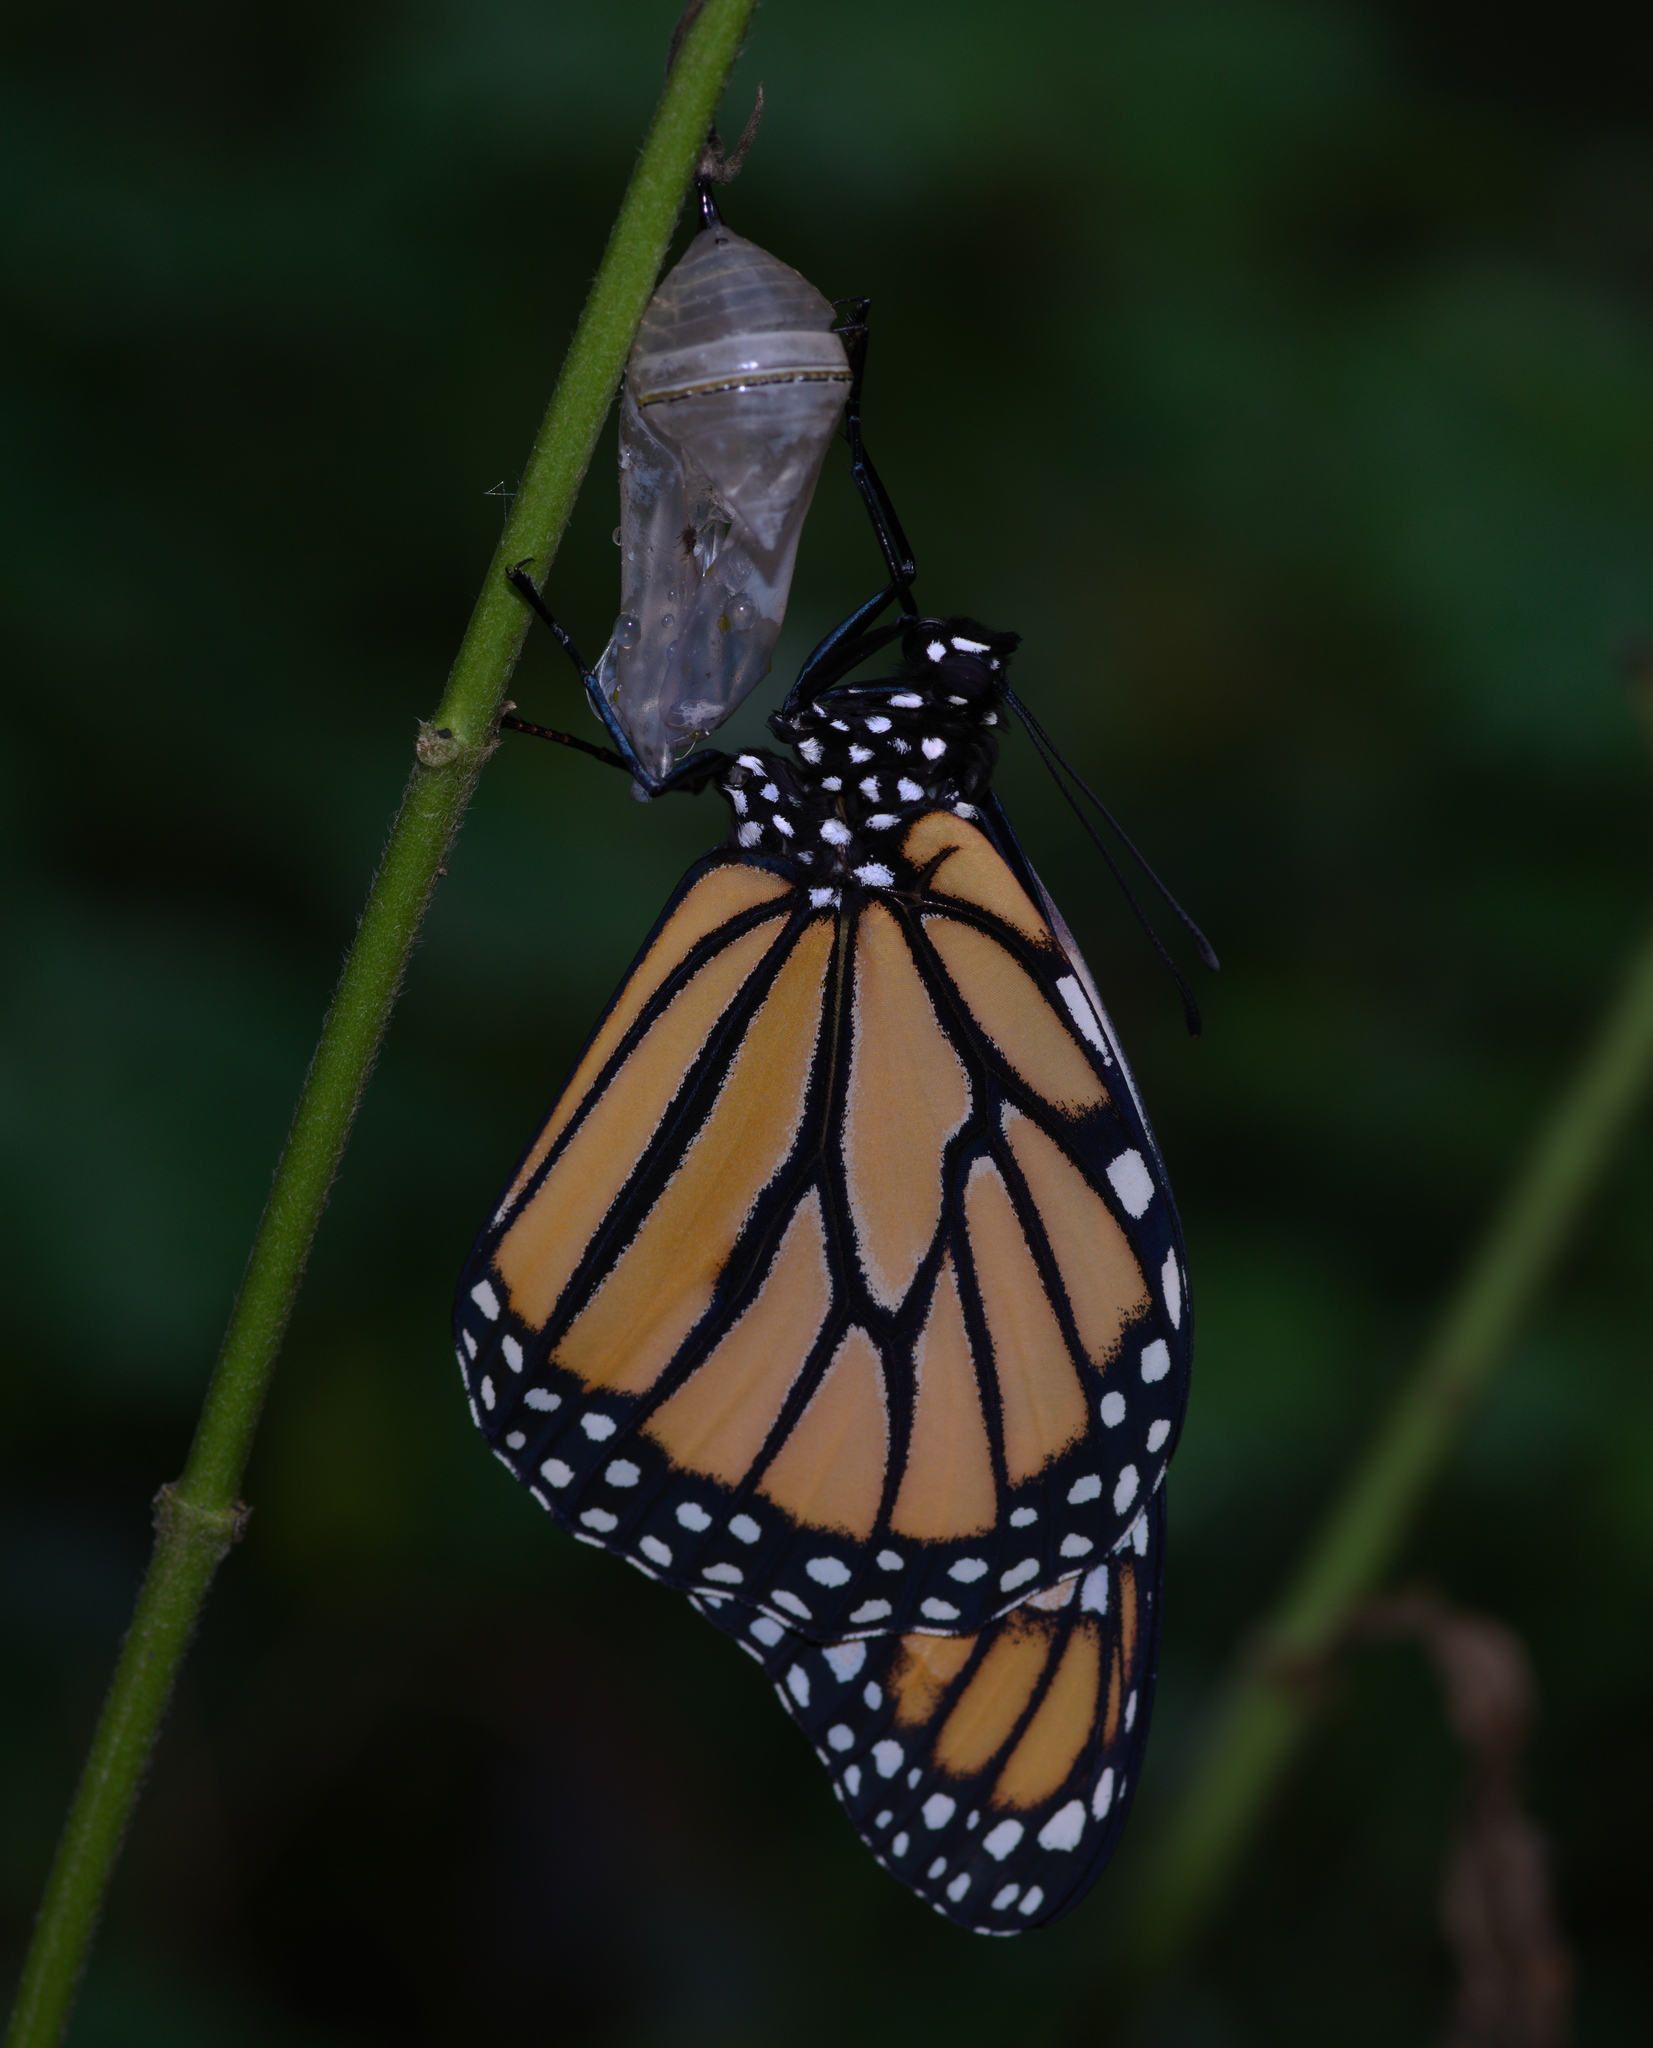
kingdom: Animalia
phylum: Arthropoda
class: Insecta
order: Lepidoptera
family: Nymphalidae
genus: Danaus
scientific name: Danaus plexippus
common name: Monarch
